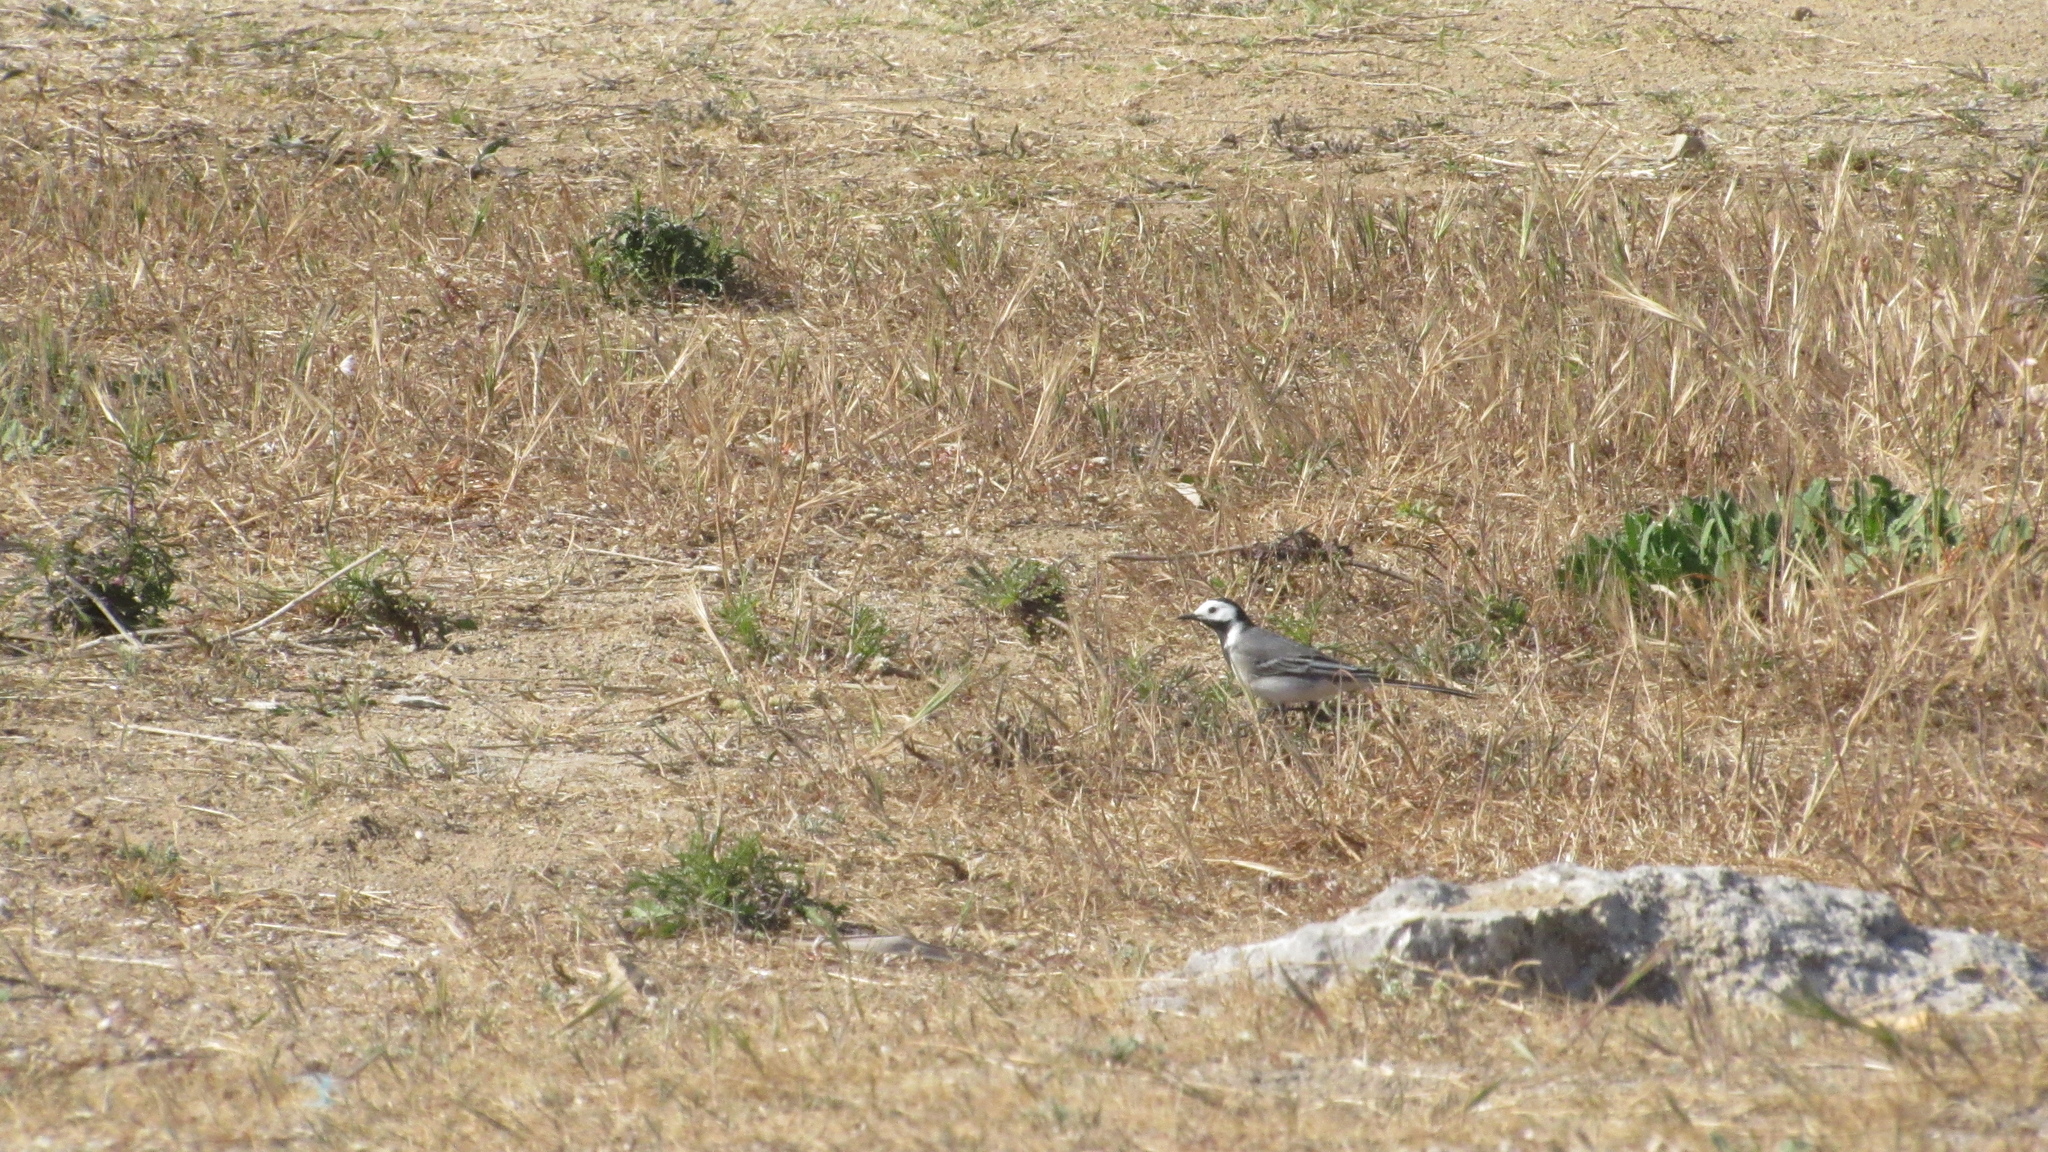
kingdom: Animalia
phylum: Chordata
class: Aves
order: Passeriformes
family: Motacillidae
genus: Motacilla
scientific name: Motacilla alba
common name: White wagtail
